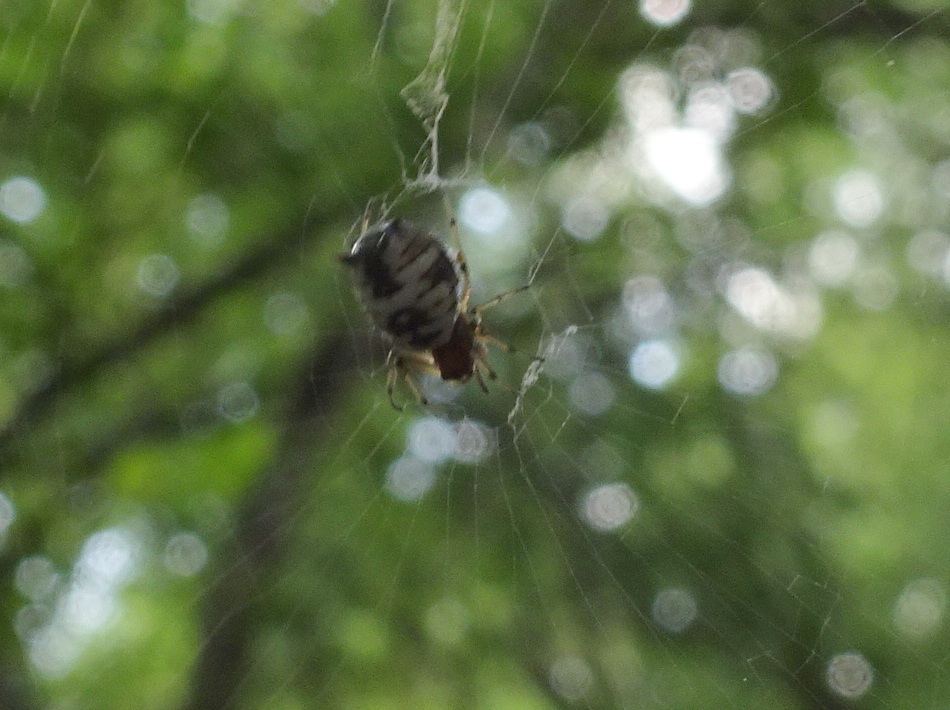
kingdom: Animalia
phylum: Arthropoda
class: Arachnida
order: Araneae
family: Araneidae
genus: Micrathena
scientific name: Micrathena mitrata
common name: Orb weavers
